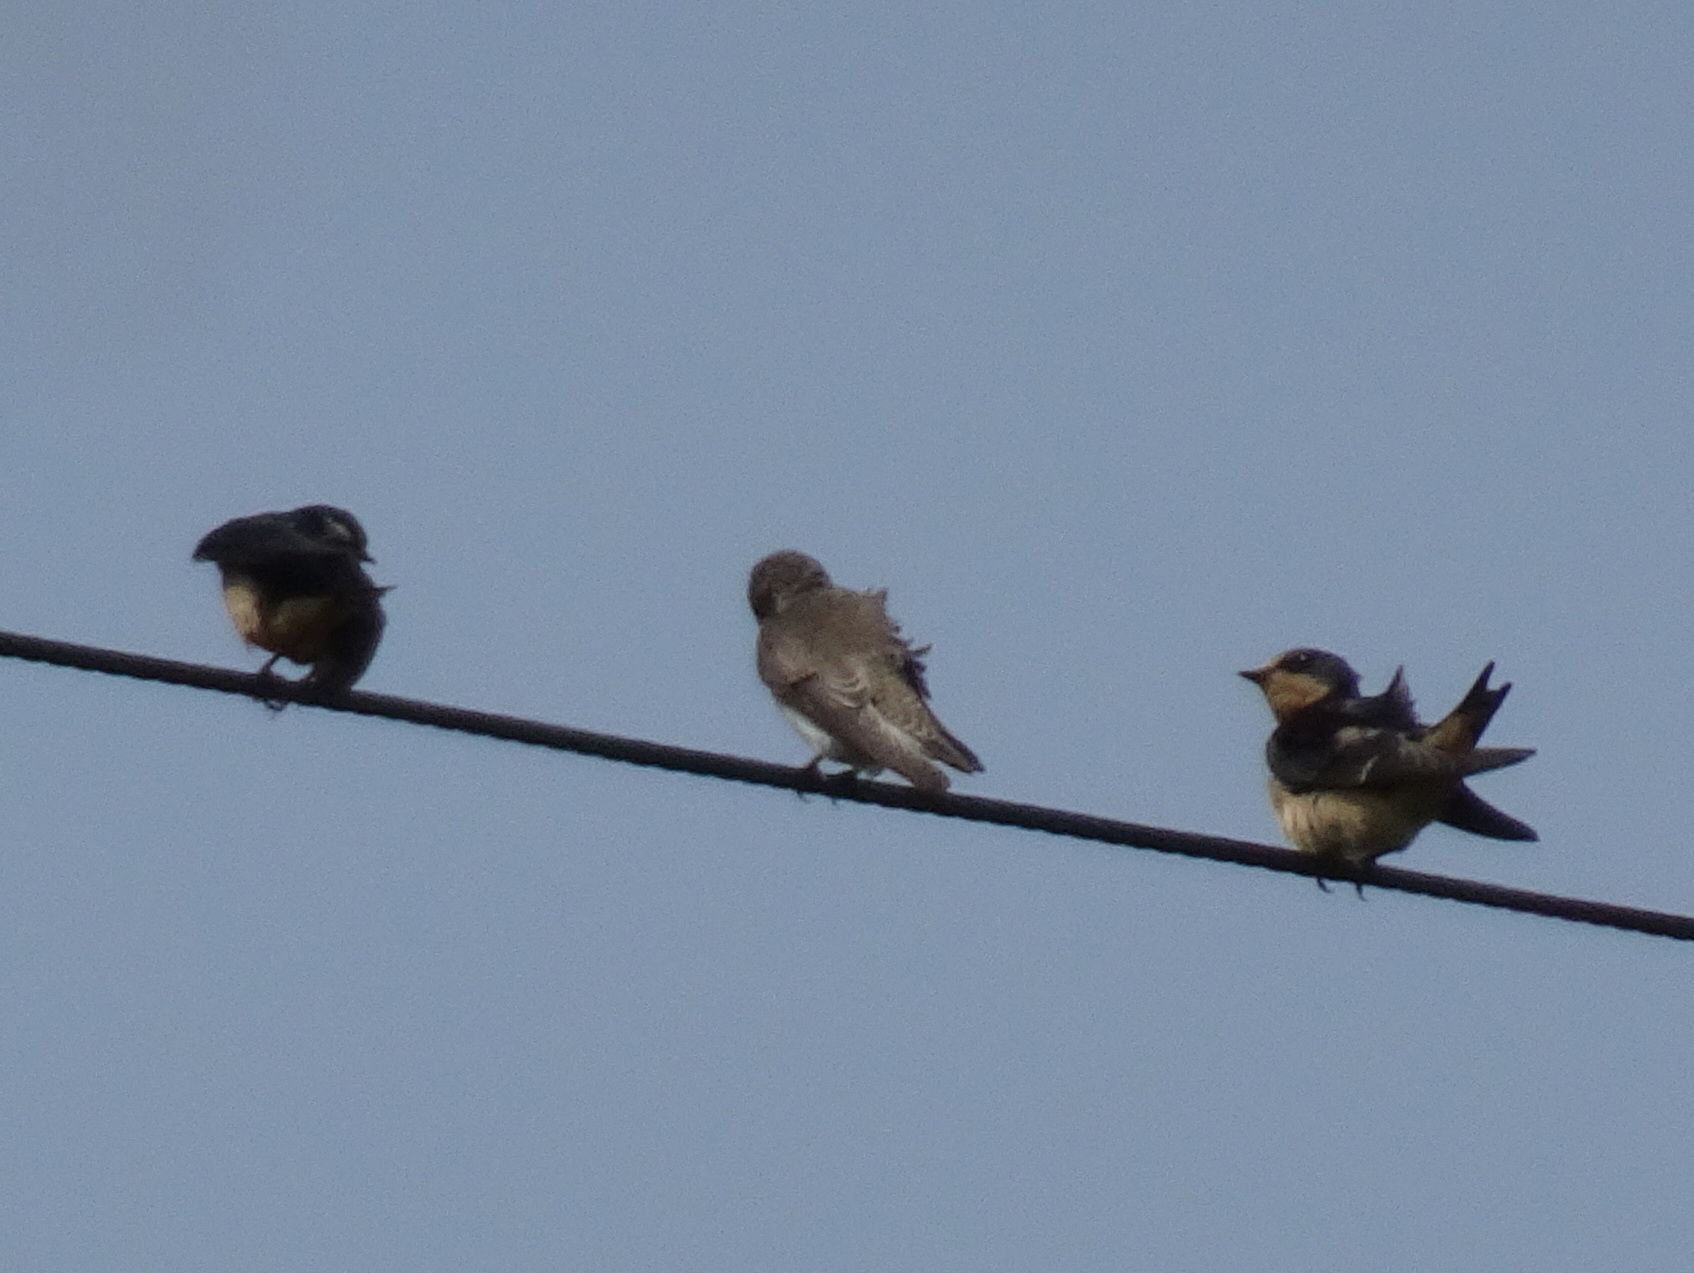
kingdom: Animalia
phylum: Chordata
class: Aves
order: Passeriformes
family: Hirundinidae
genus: Stelgidopteryx
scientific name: Stelgidopteryx serripennis
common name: Northern rough-winged swallow
